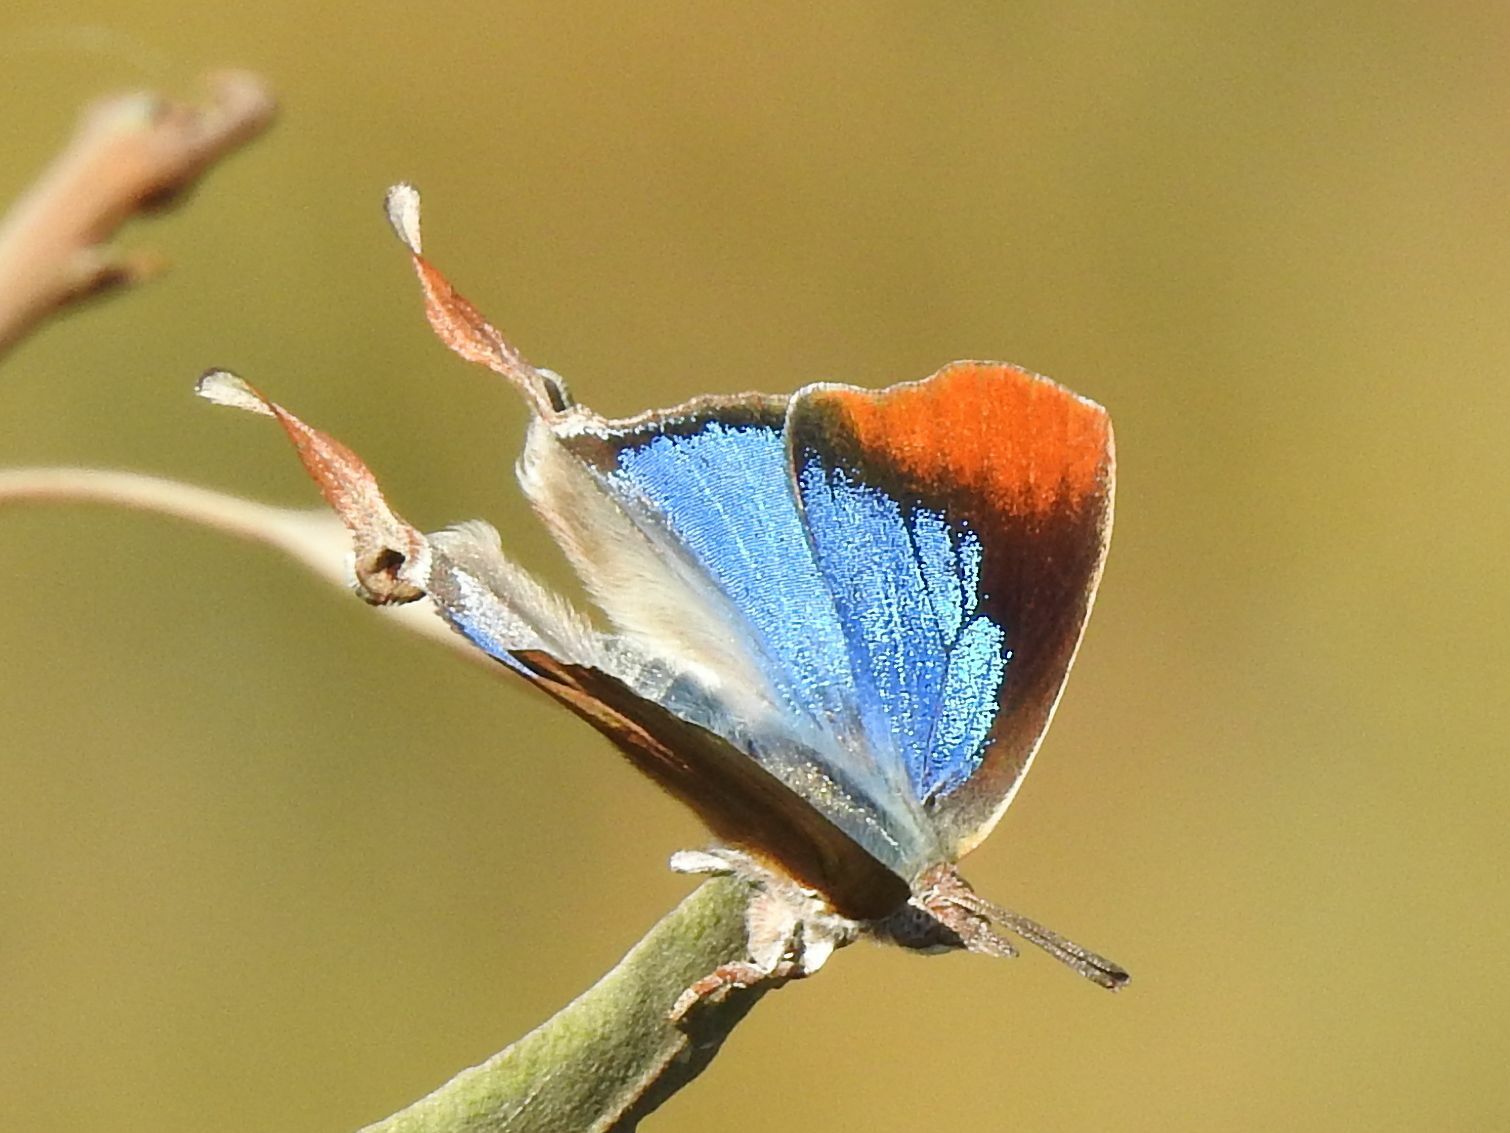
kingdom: Animalia
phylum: Arthropoda
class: Insecta
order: Lepidoptera
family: Lycaenidae
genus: Myrina
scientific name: Myrina silenus
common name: Amber fig-tree blue
